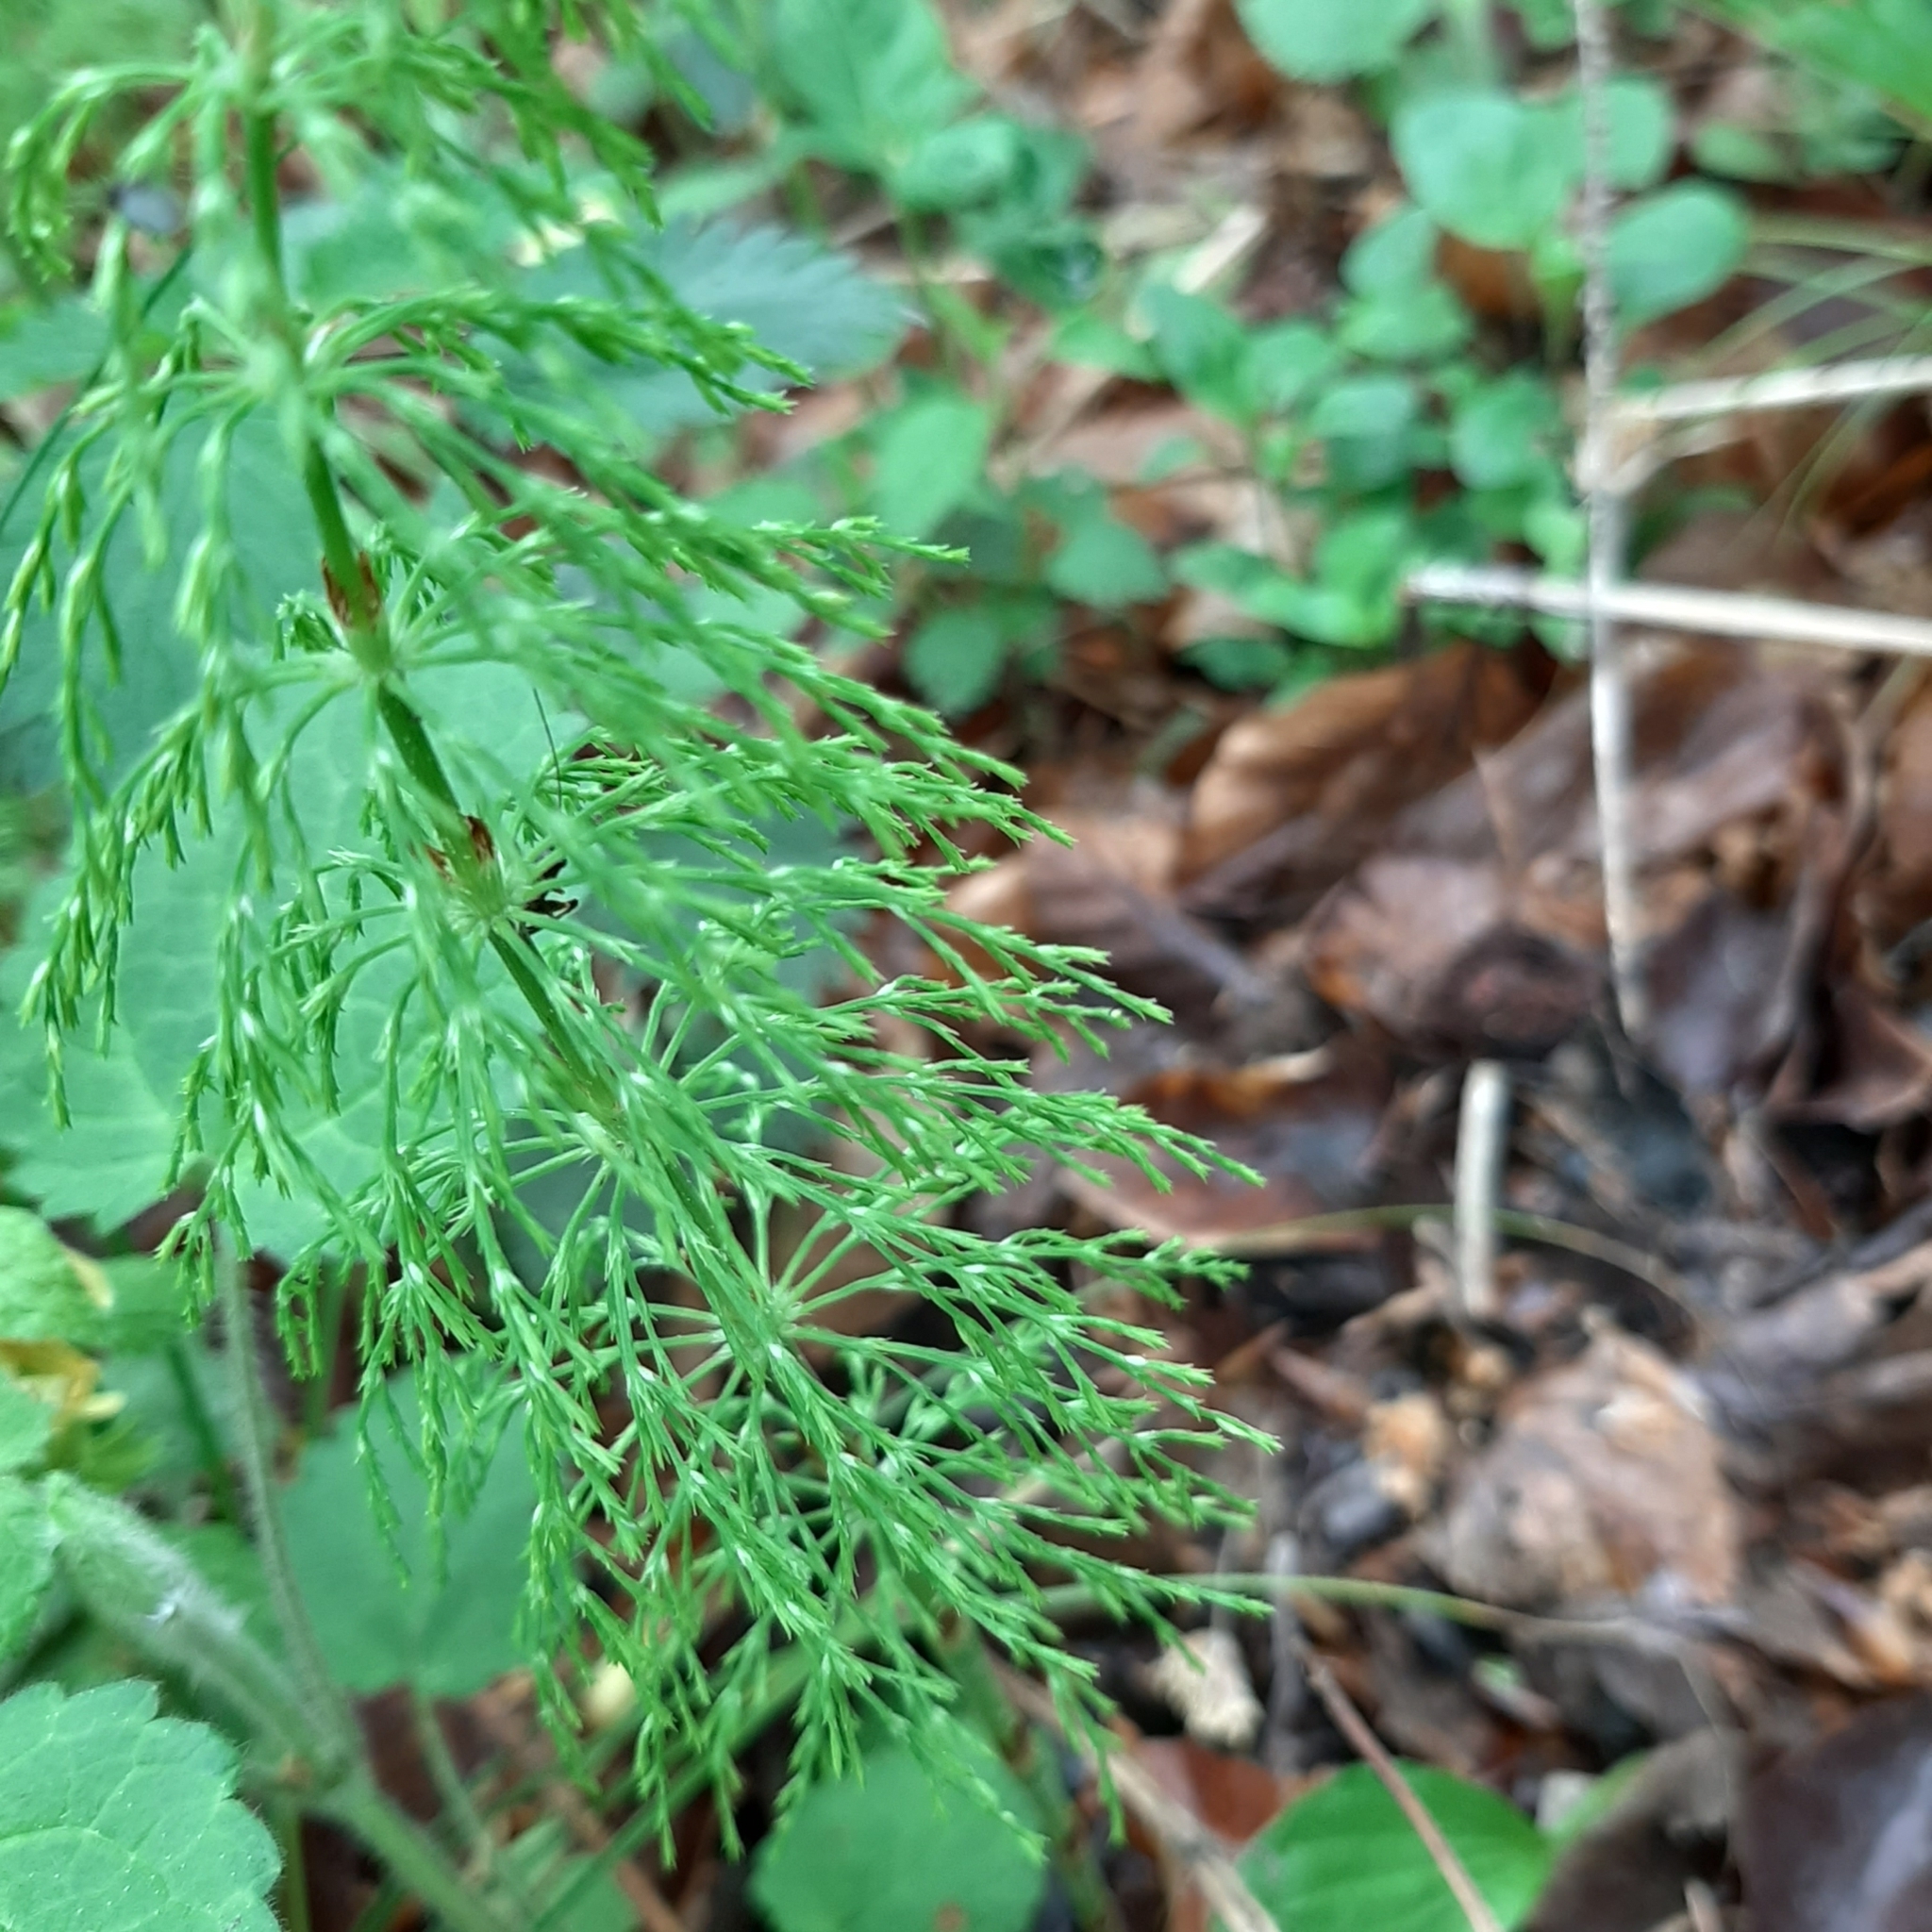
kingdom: Plantae
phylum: Tracheophyta
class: Polypodiopsida
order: Equisetales
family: Equisetaceae
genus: Equisetum
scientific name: Equisetum sylvaticum
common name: Wood horsetail
